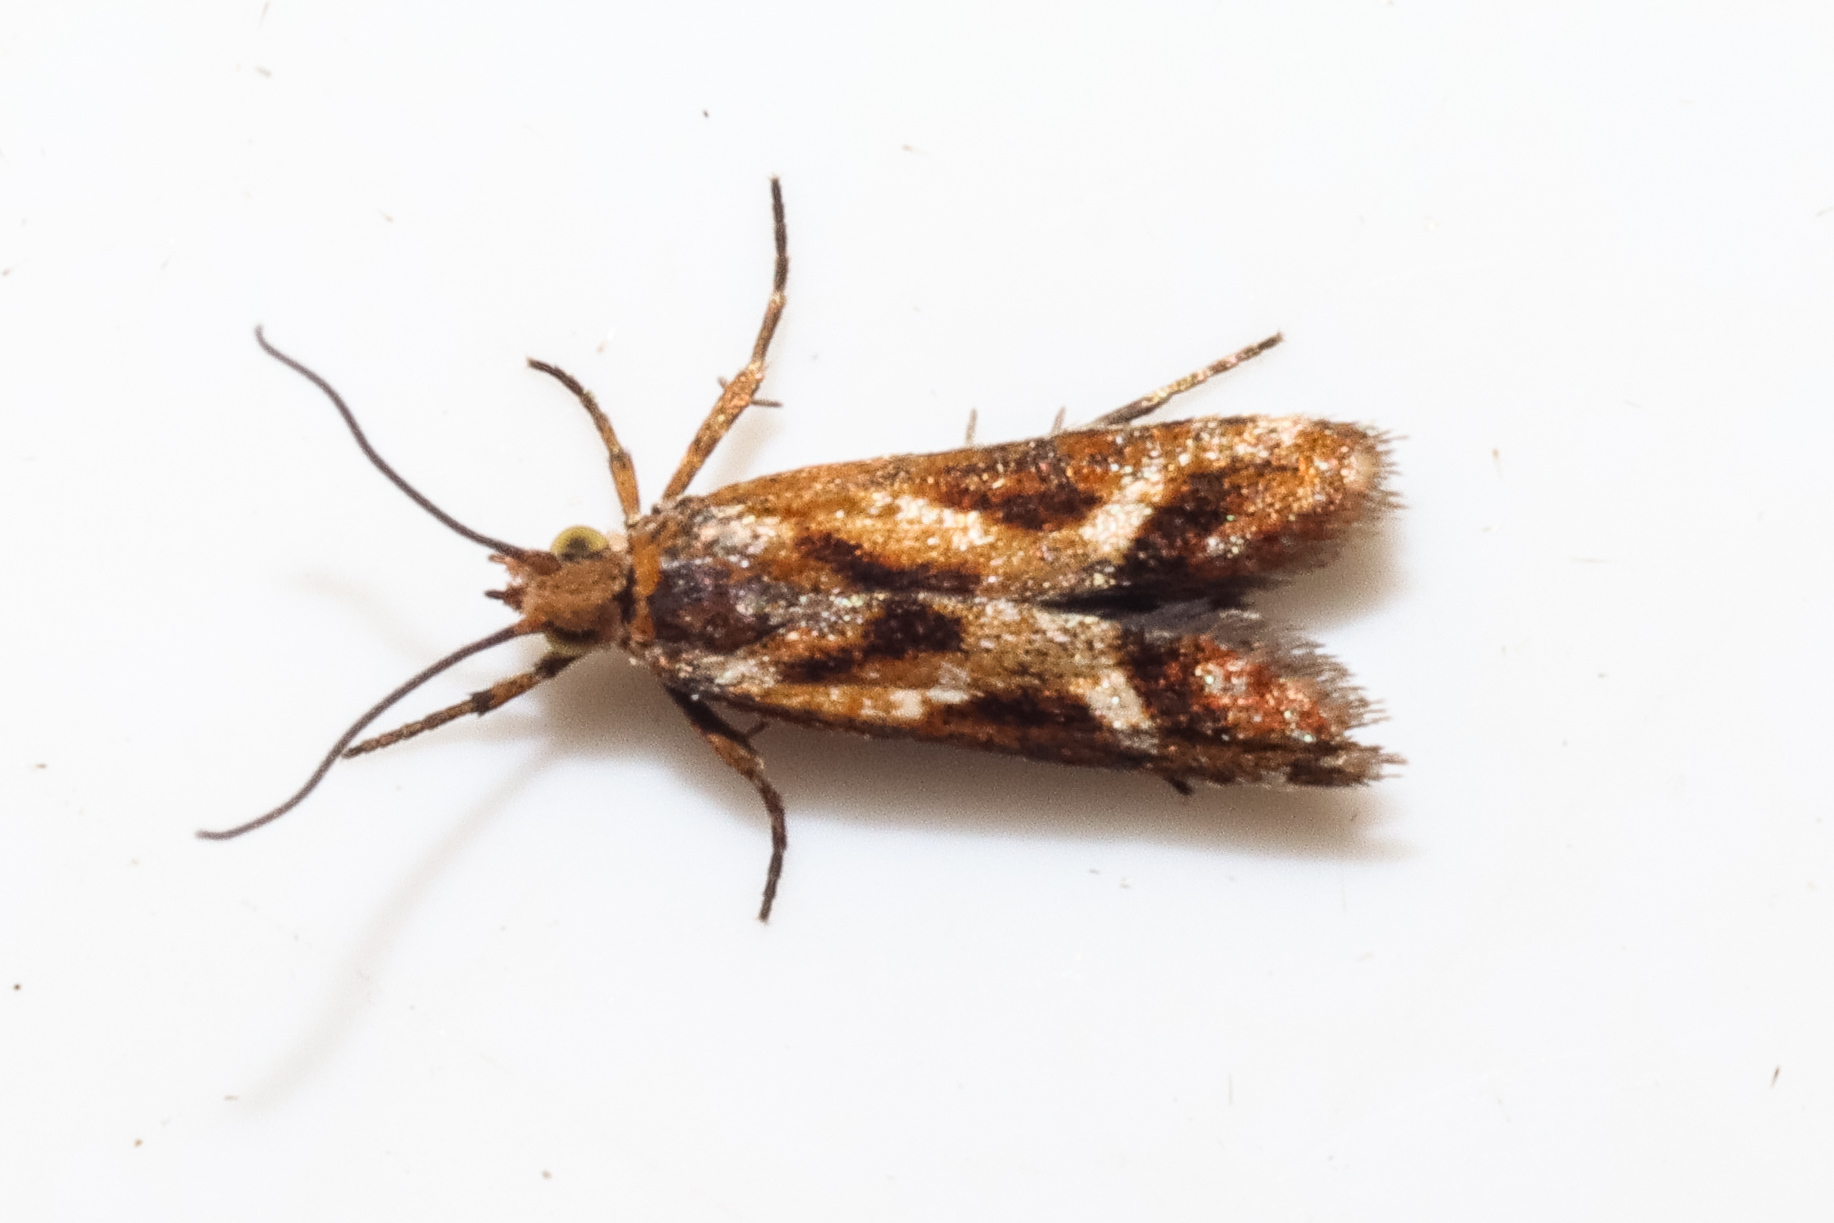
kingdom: Animalia
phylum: Arthropoda
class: Insecta
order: Lepidoptera
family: Tortricidae
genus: Protithona
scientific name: Protithona fugitivana
